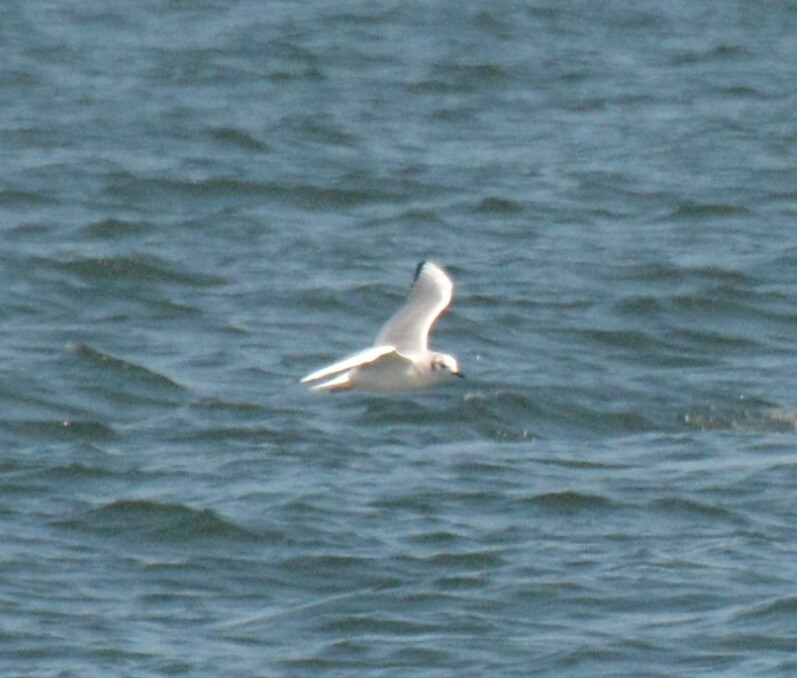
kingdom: Animalia
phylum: Chordata
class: Aves
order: Charadriiformes
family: Laridae
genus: Chroicocephalus
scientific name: Chroicocephalus philadelphia
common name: Bonaparte's gull
